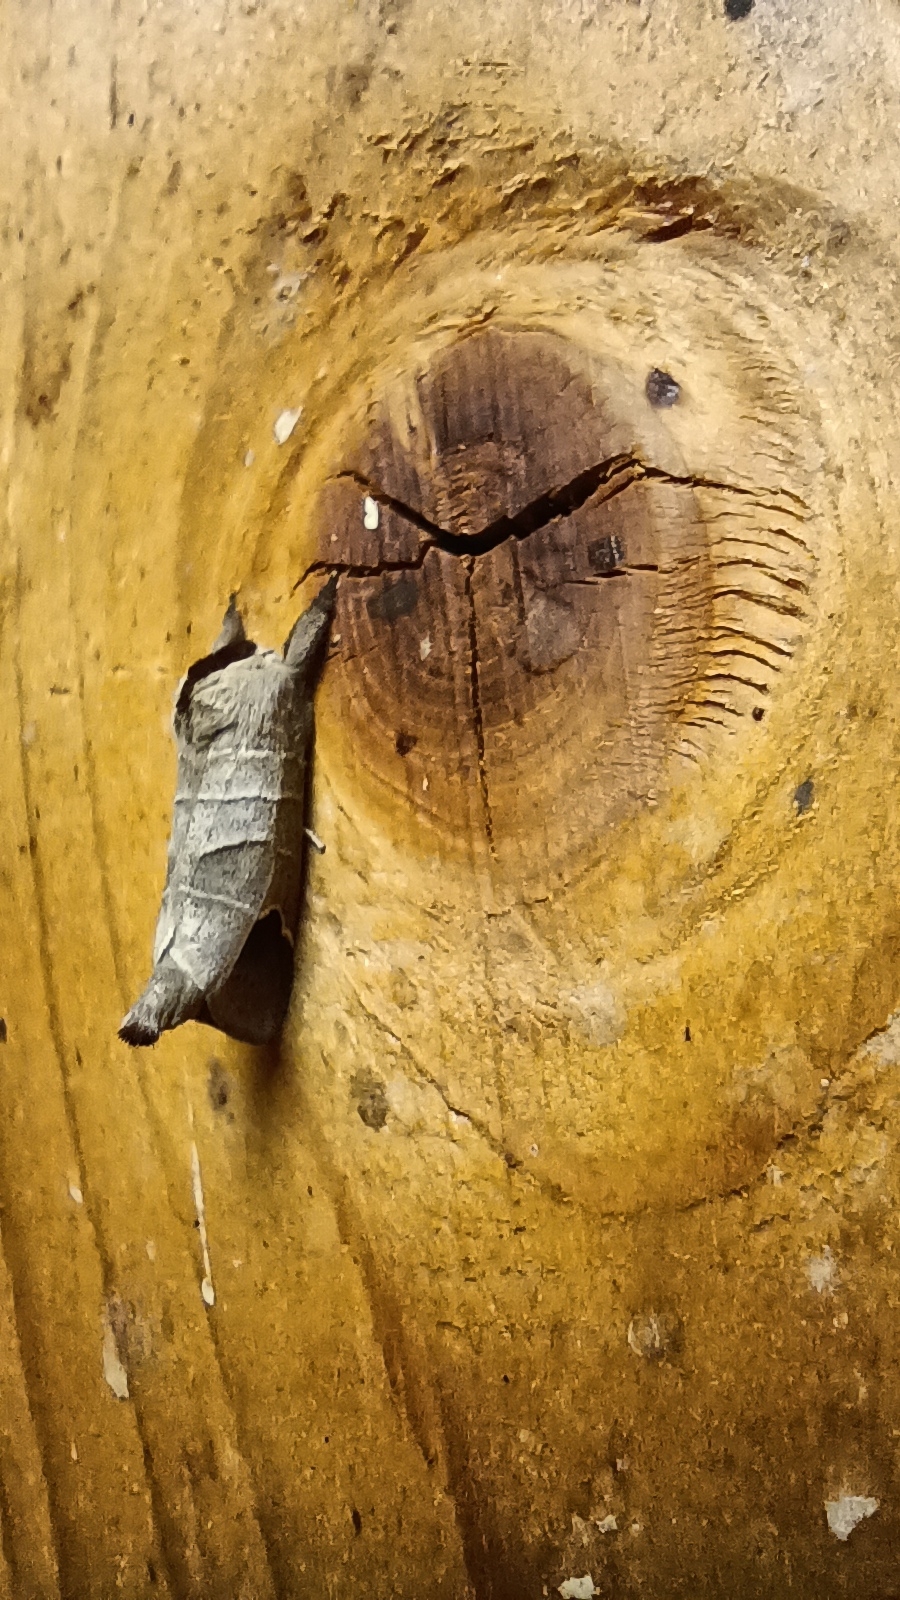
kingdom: Animalia
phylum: Arthropoda
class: Insecta
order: Lepidoptera
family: Notodontidae
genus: Clostera
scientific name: Clostera curtula
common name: Chocolate-tip
